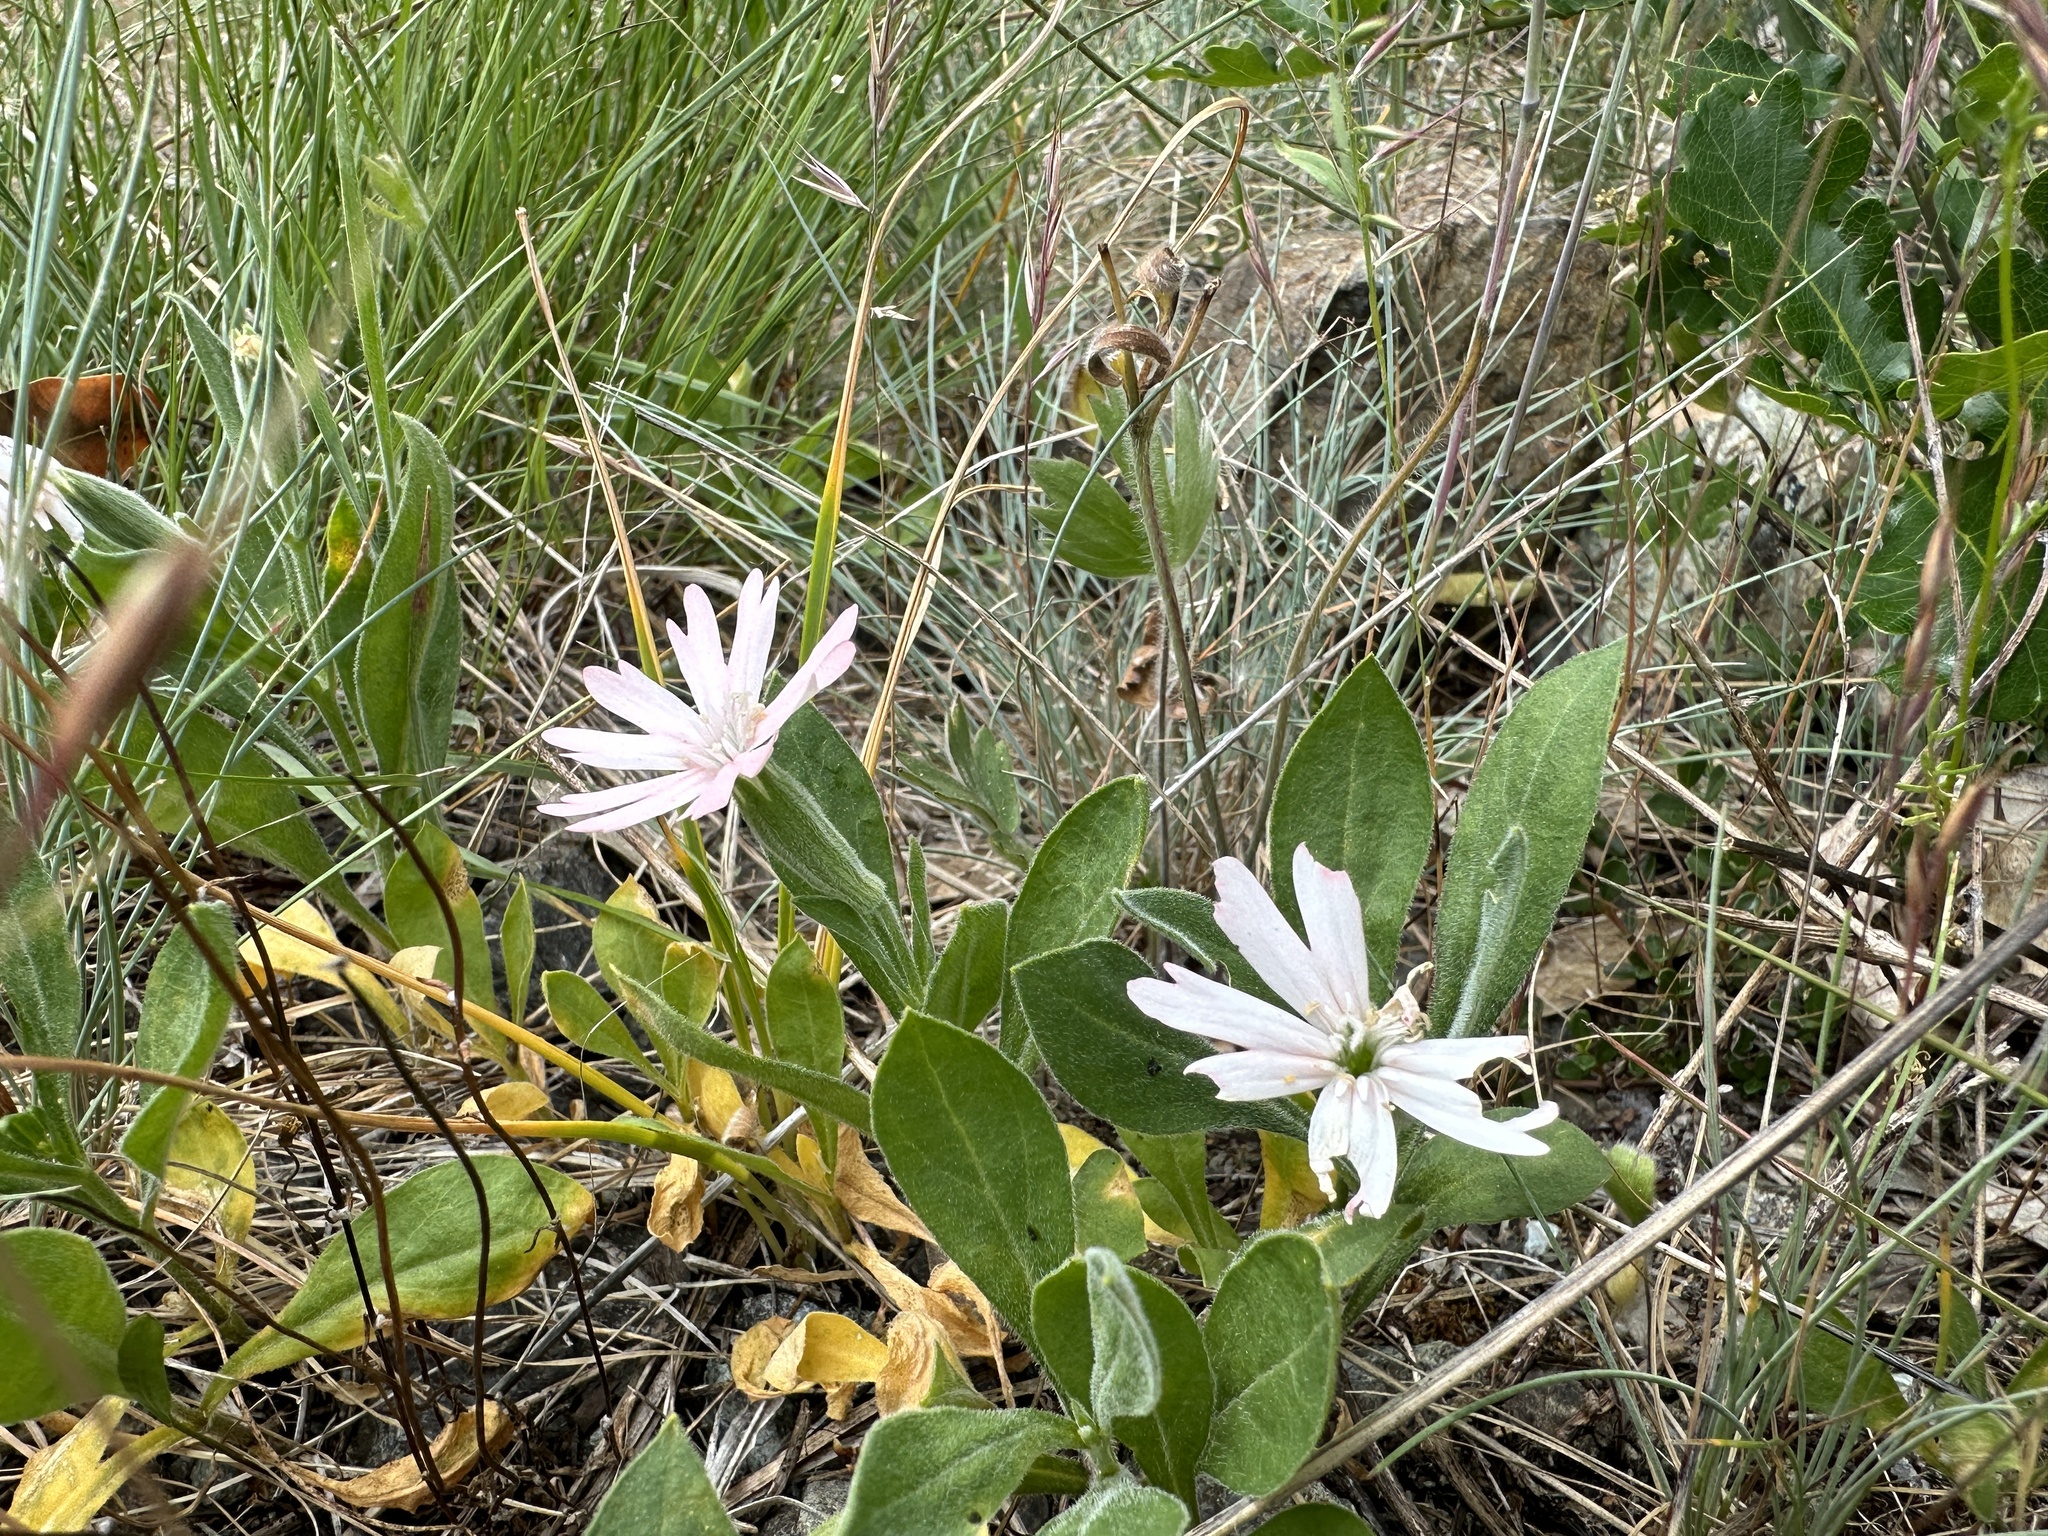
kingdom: Plantae
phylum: Tracheophyta
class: Magnoliopsida
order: Caryophyllales
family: Caryophyllaceae
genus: Silene
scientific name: Silene hookeri
